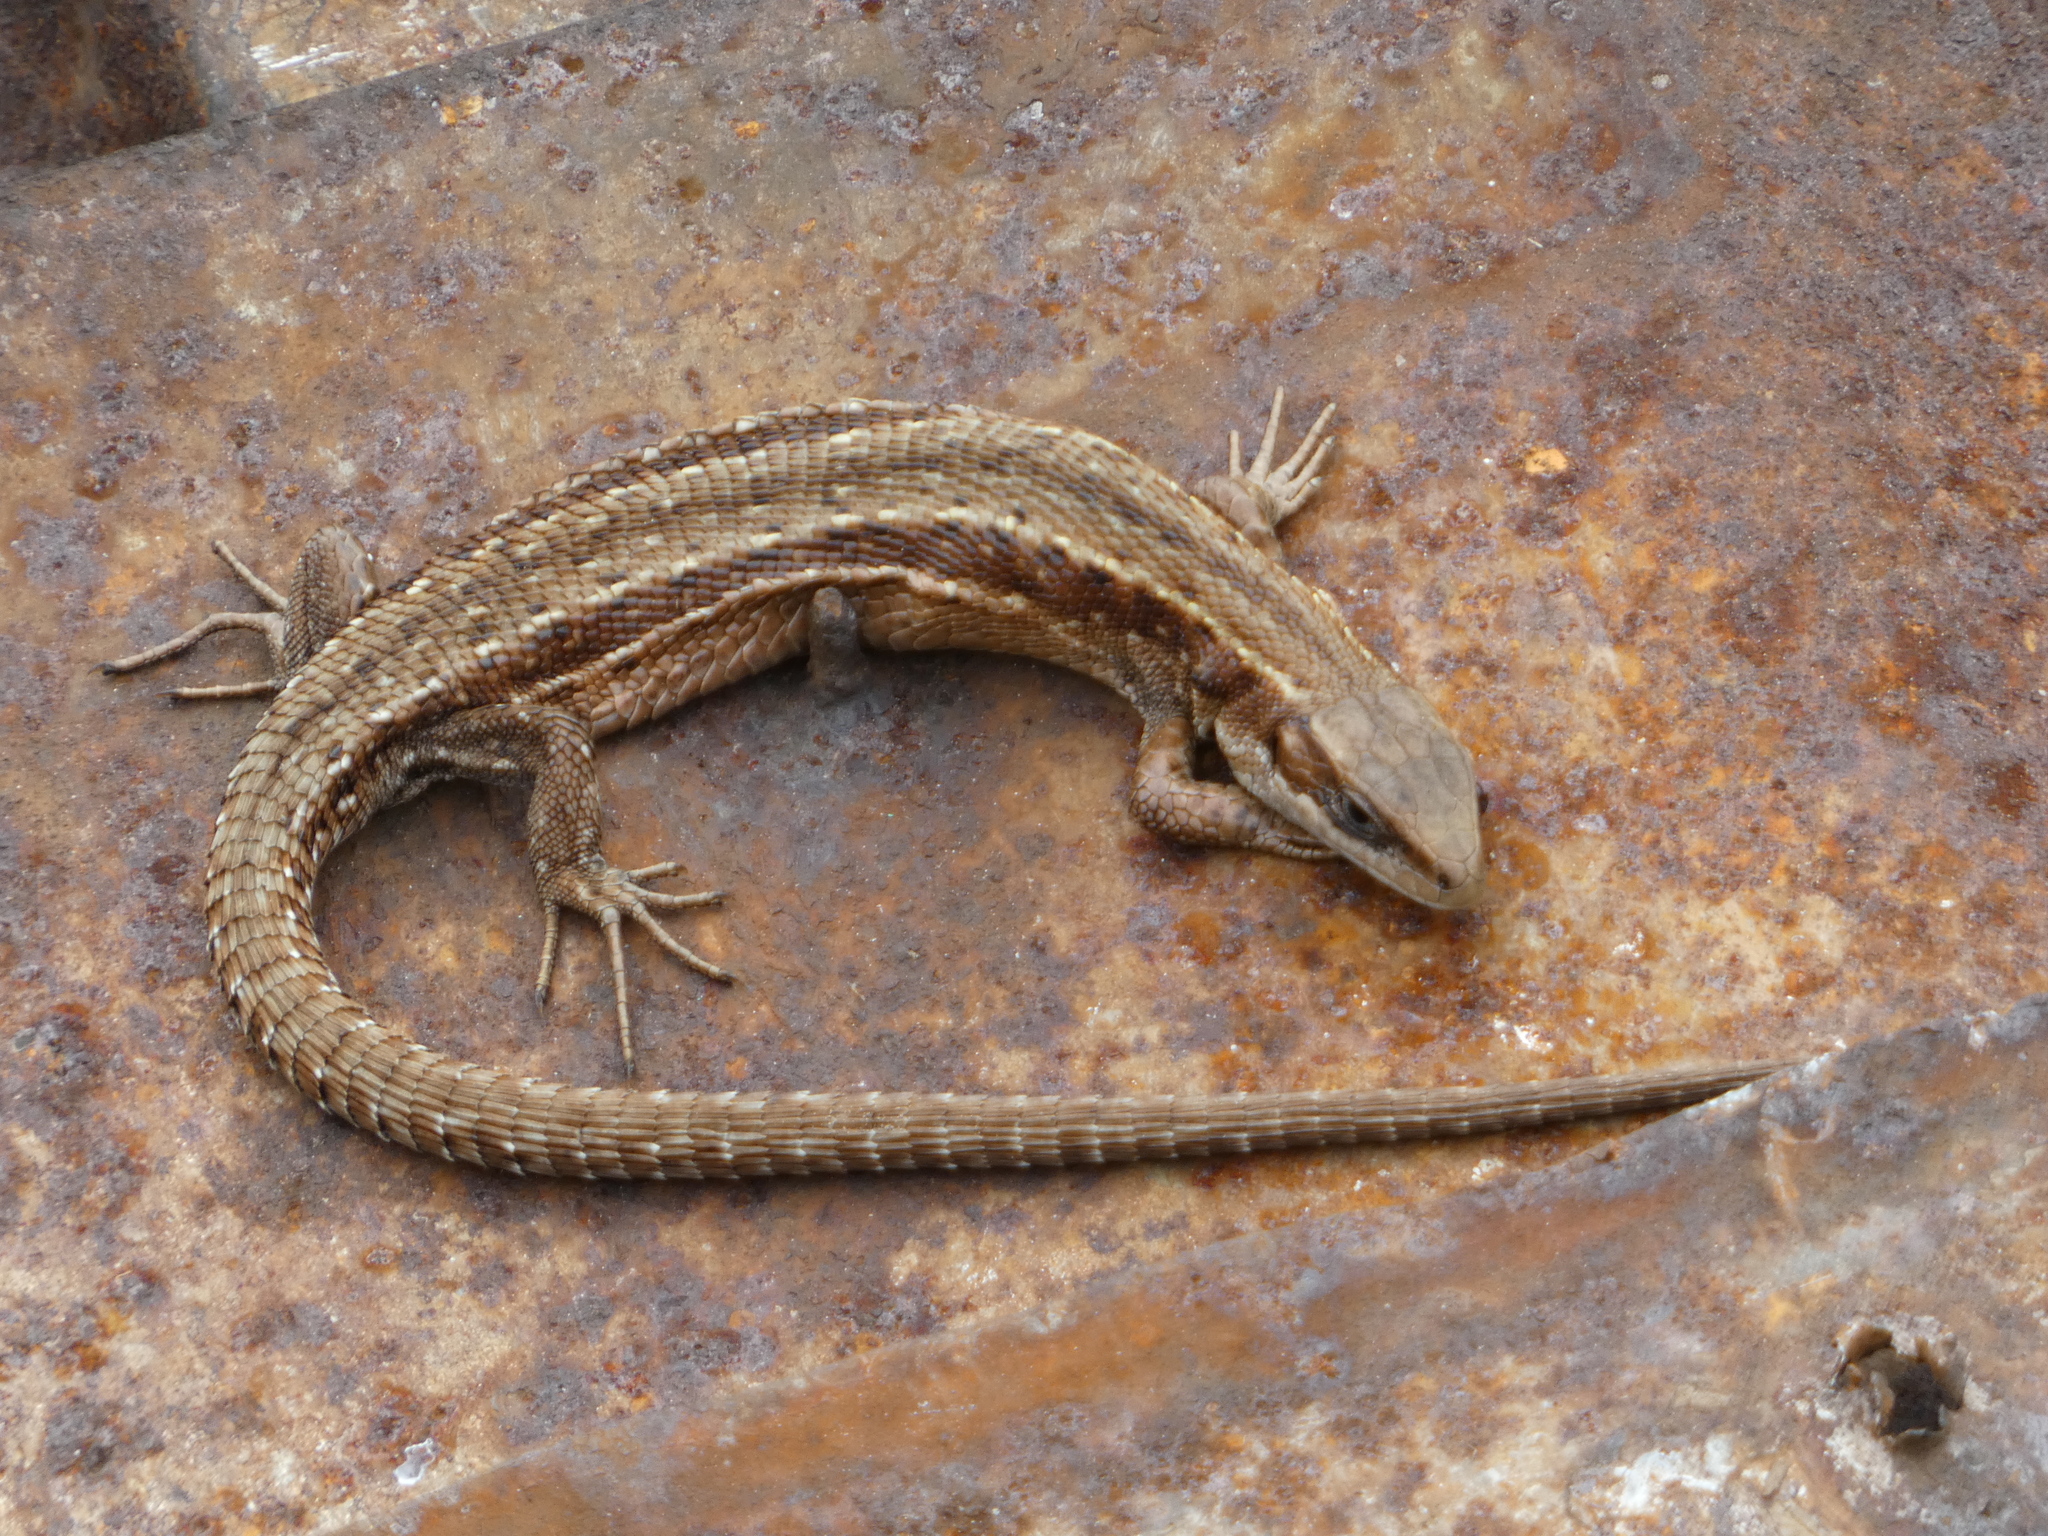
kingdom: Animalia
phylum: Chordata
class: Squamata
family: Lacertidae
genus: Zootoca
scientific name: Zootoca vivipara
